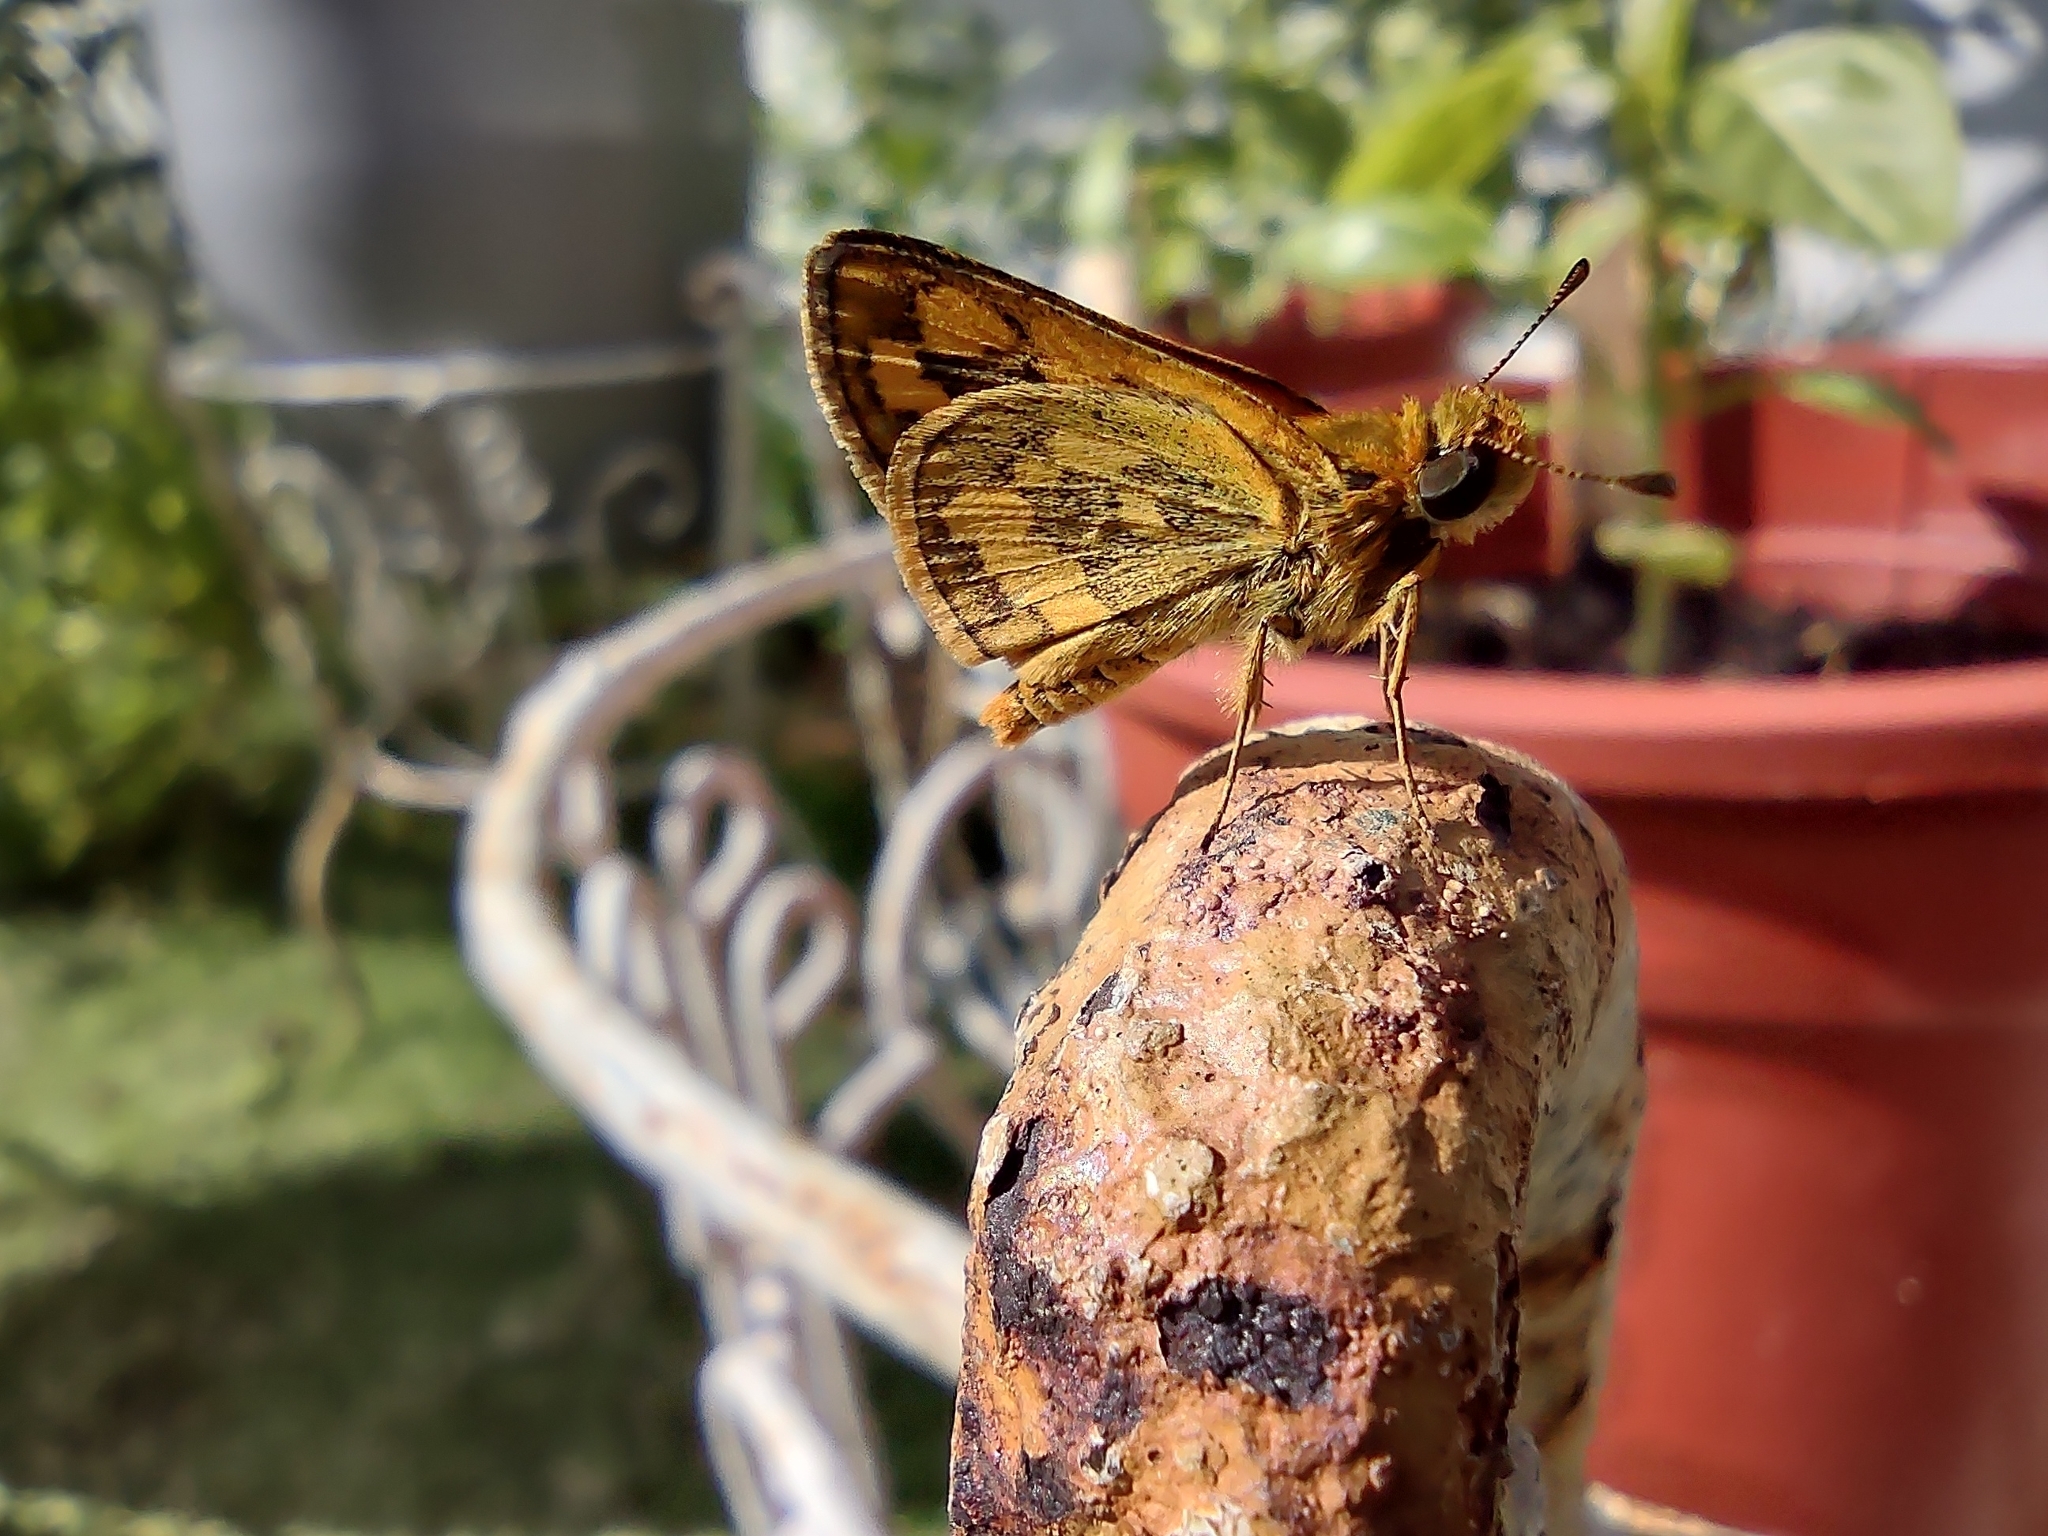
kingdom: Animalia
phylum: Arthropoda
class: Insecta
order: Lepidoptera
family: Hesperiidae
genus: Taractrocera
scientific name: Taractrocera
